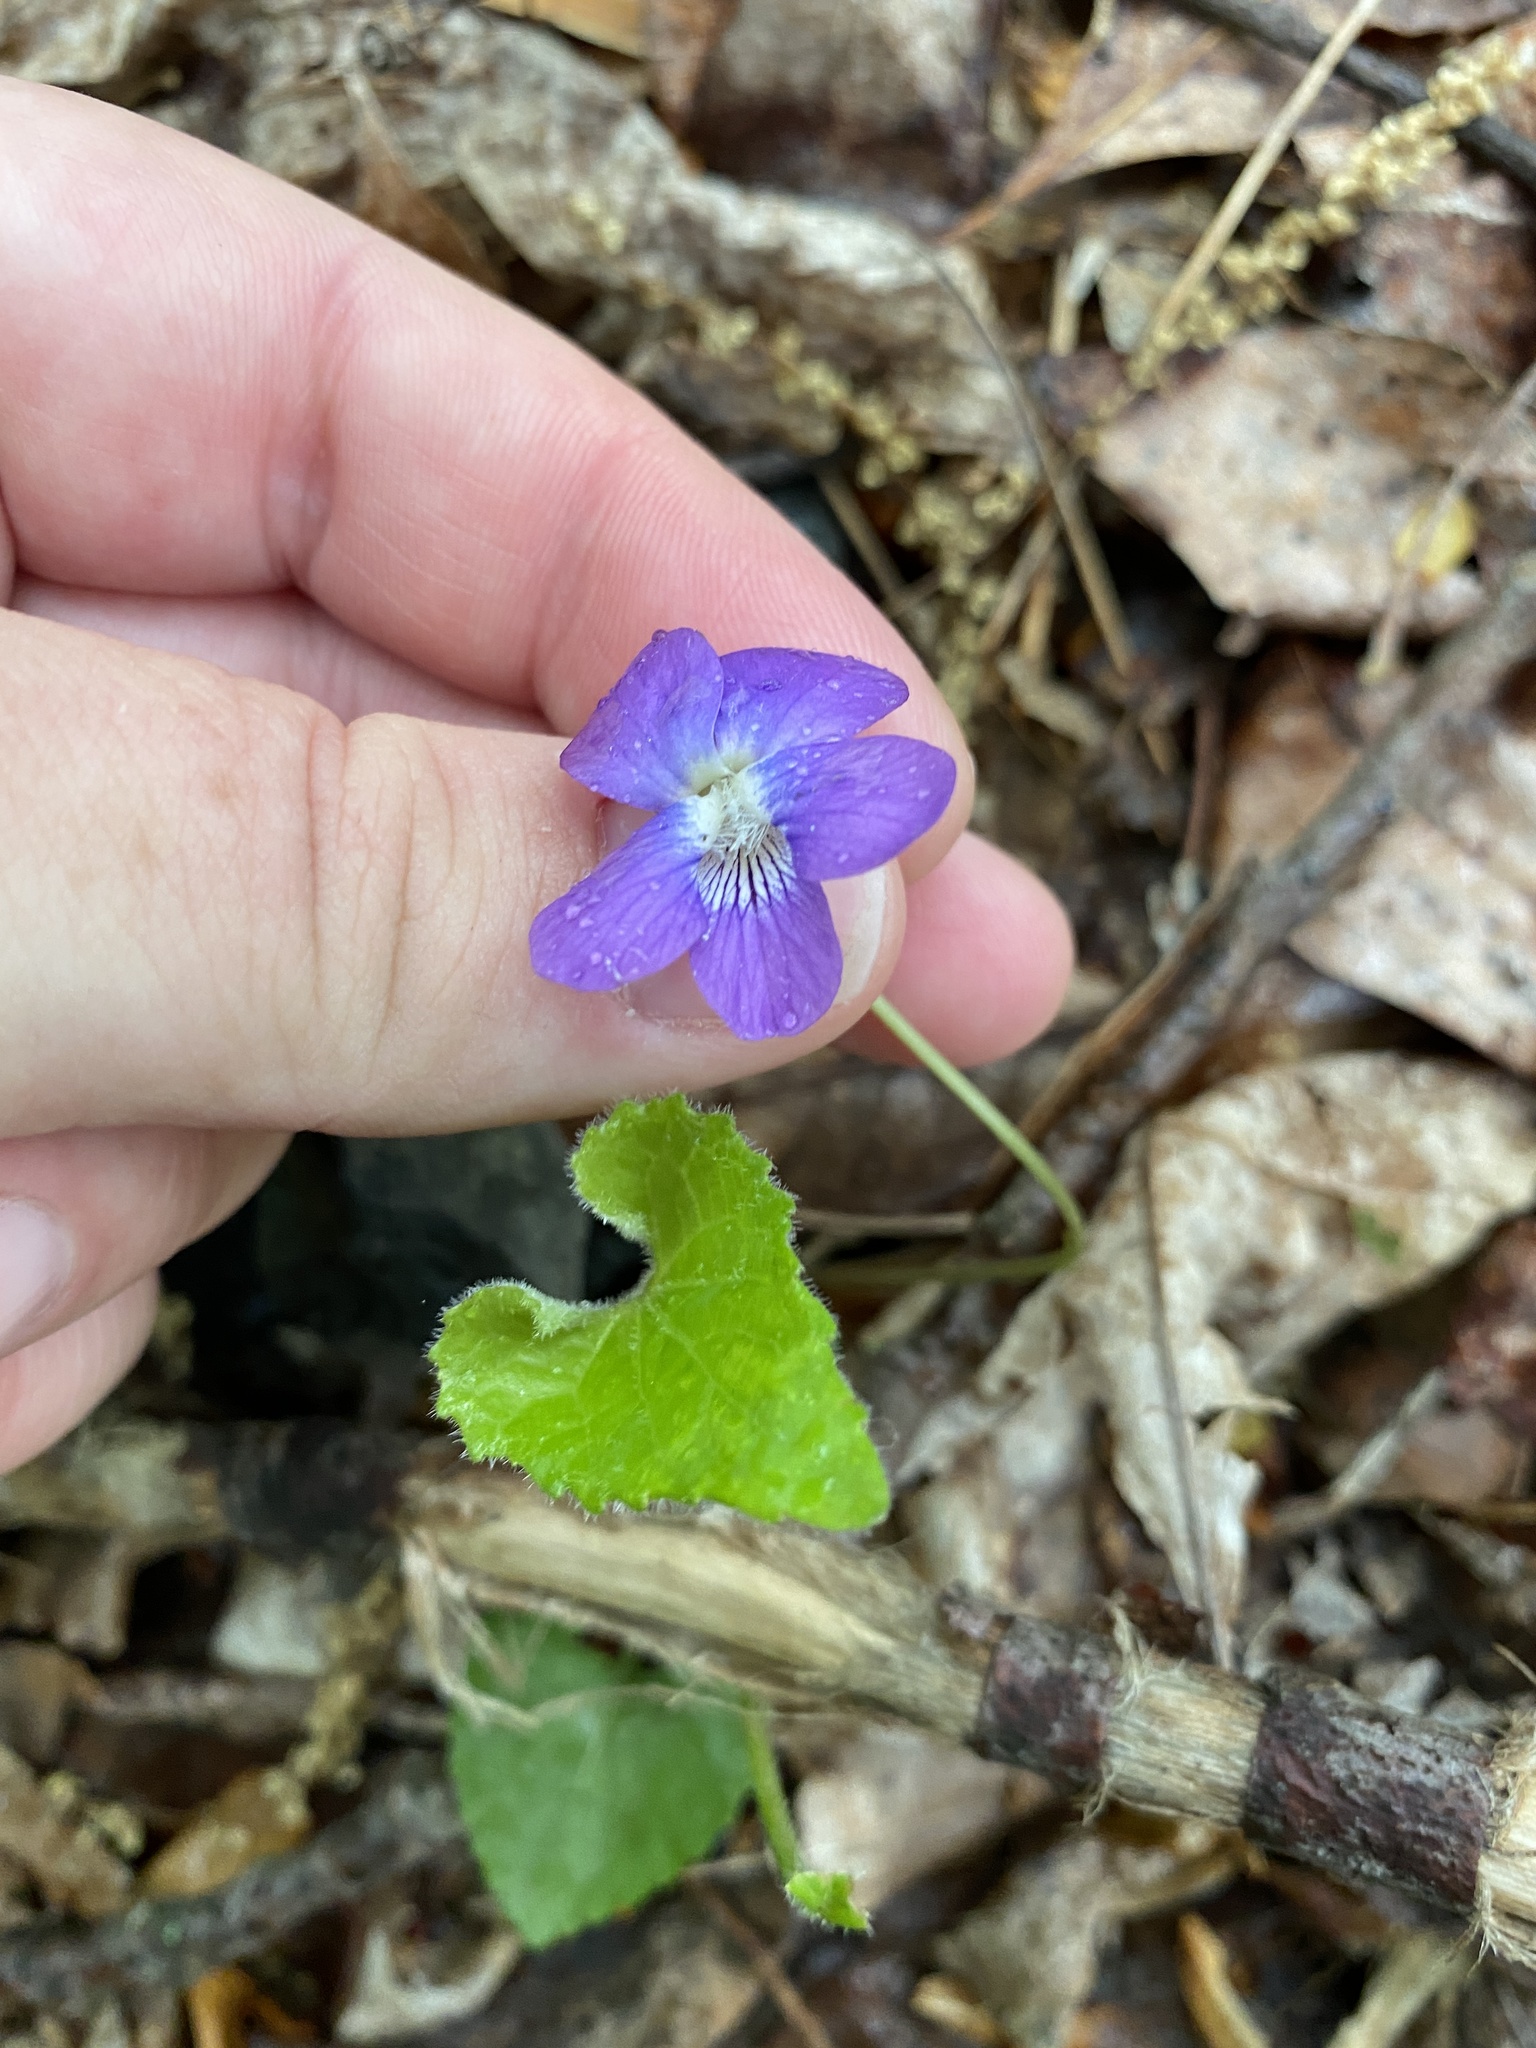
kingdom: Plantae
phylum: Tracheophyta
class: Magnoliopsida
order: Malpighiales
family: Violaceae
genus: Viola
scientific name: Viola sororia
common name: Dooryard violet
